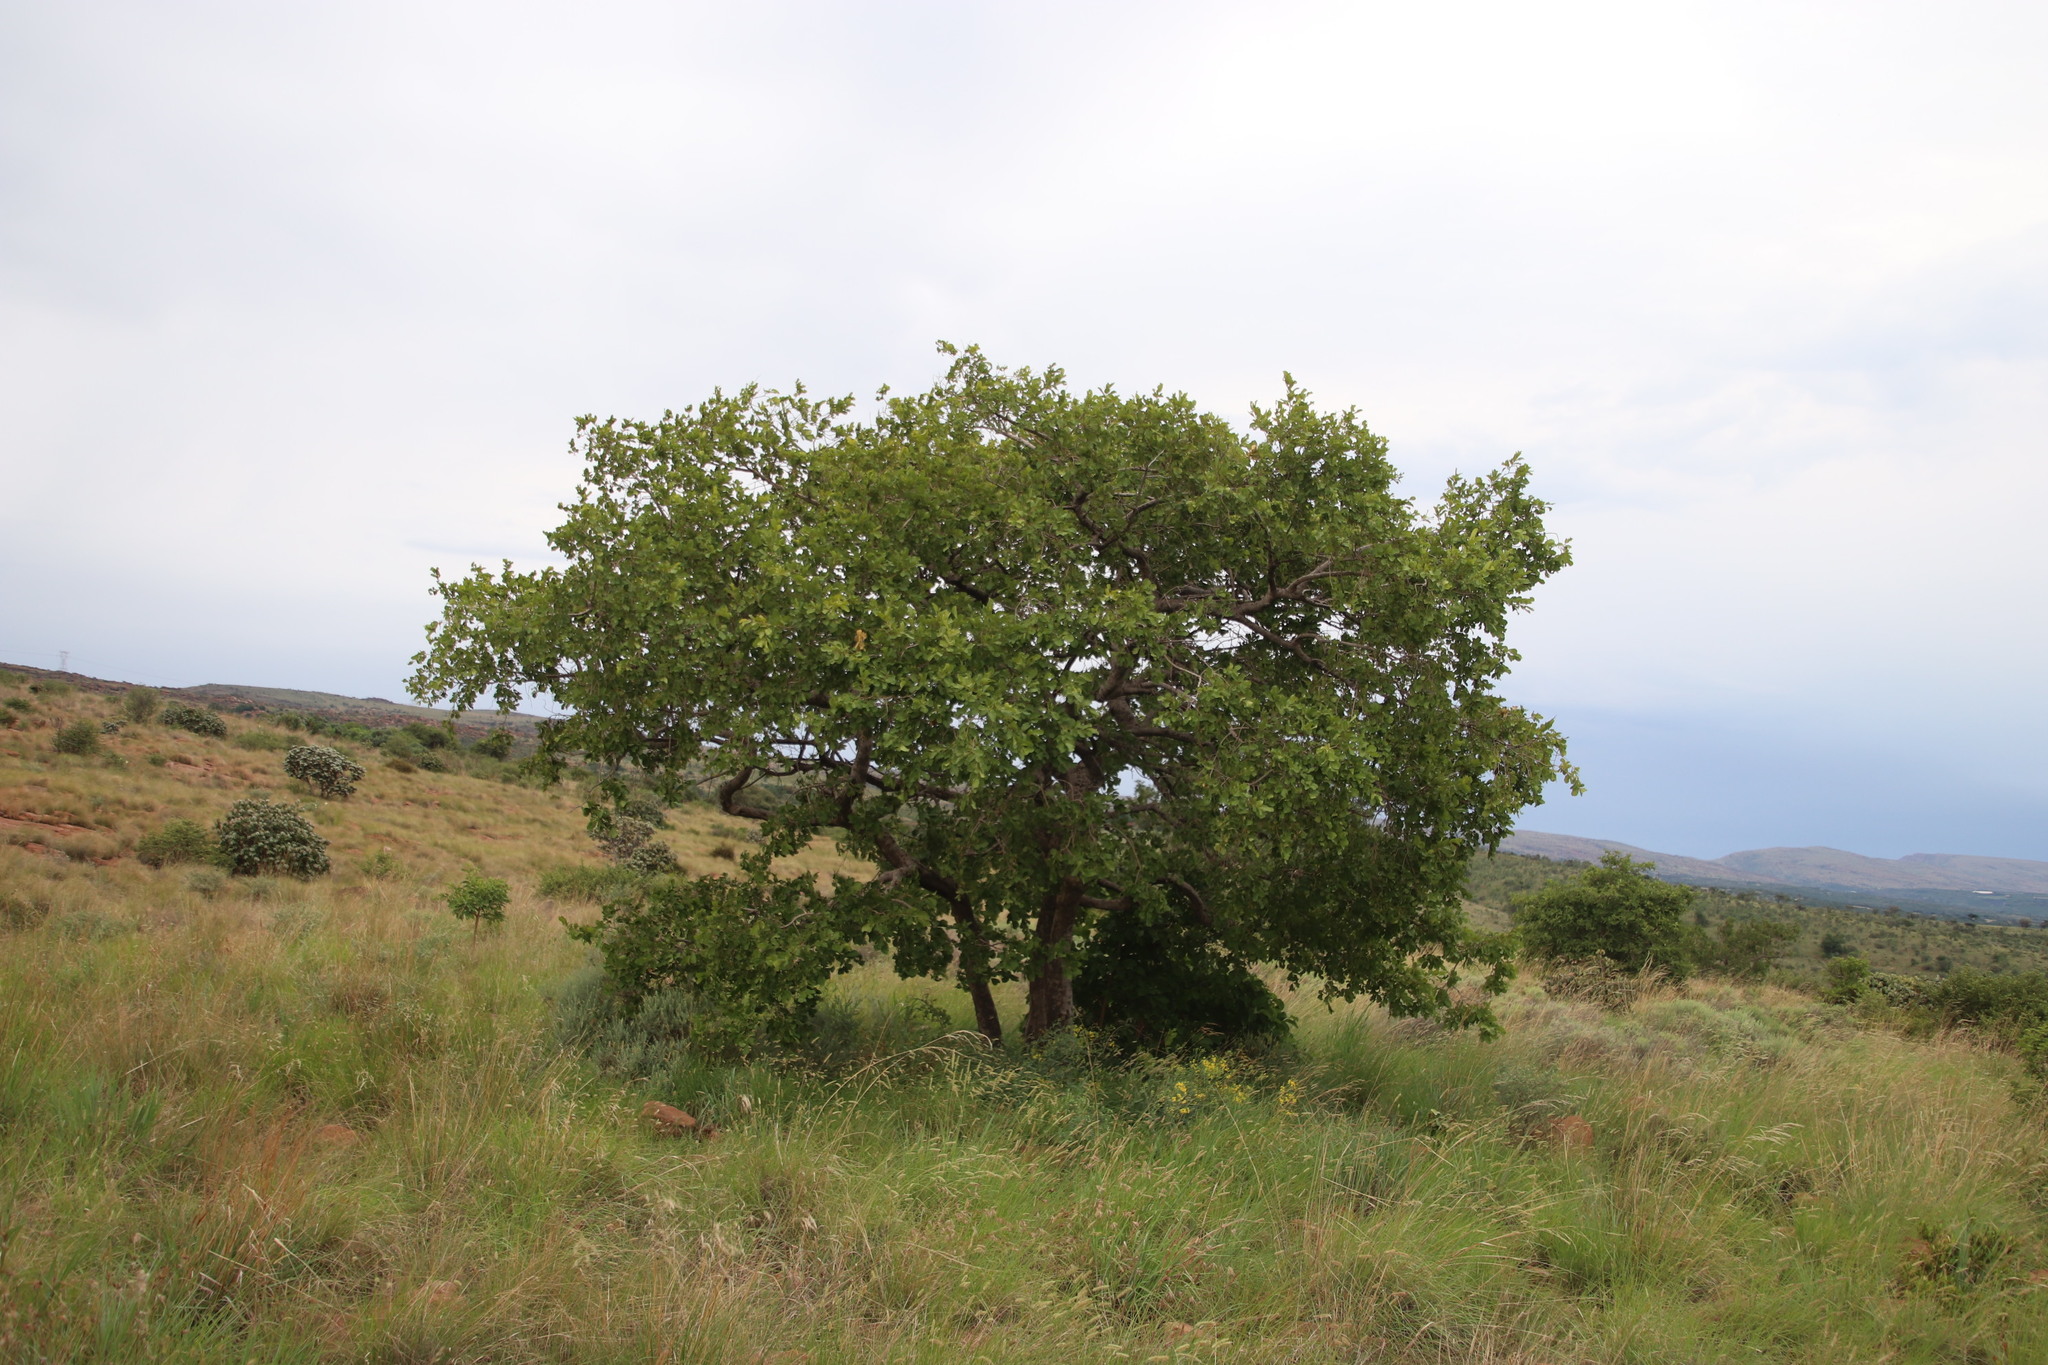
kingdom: Plantae
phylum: Tracheophyta
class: Magnoliopsida
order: Myrtales
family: Combretaceae
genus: Combretum
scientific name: Combretum zeyheri
